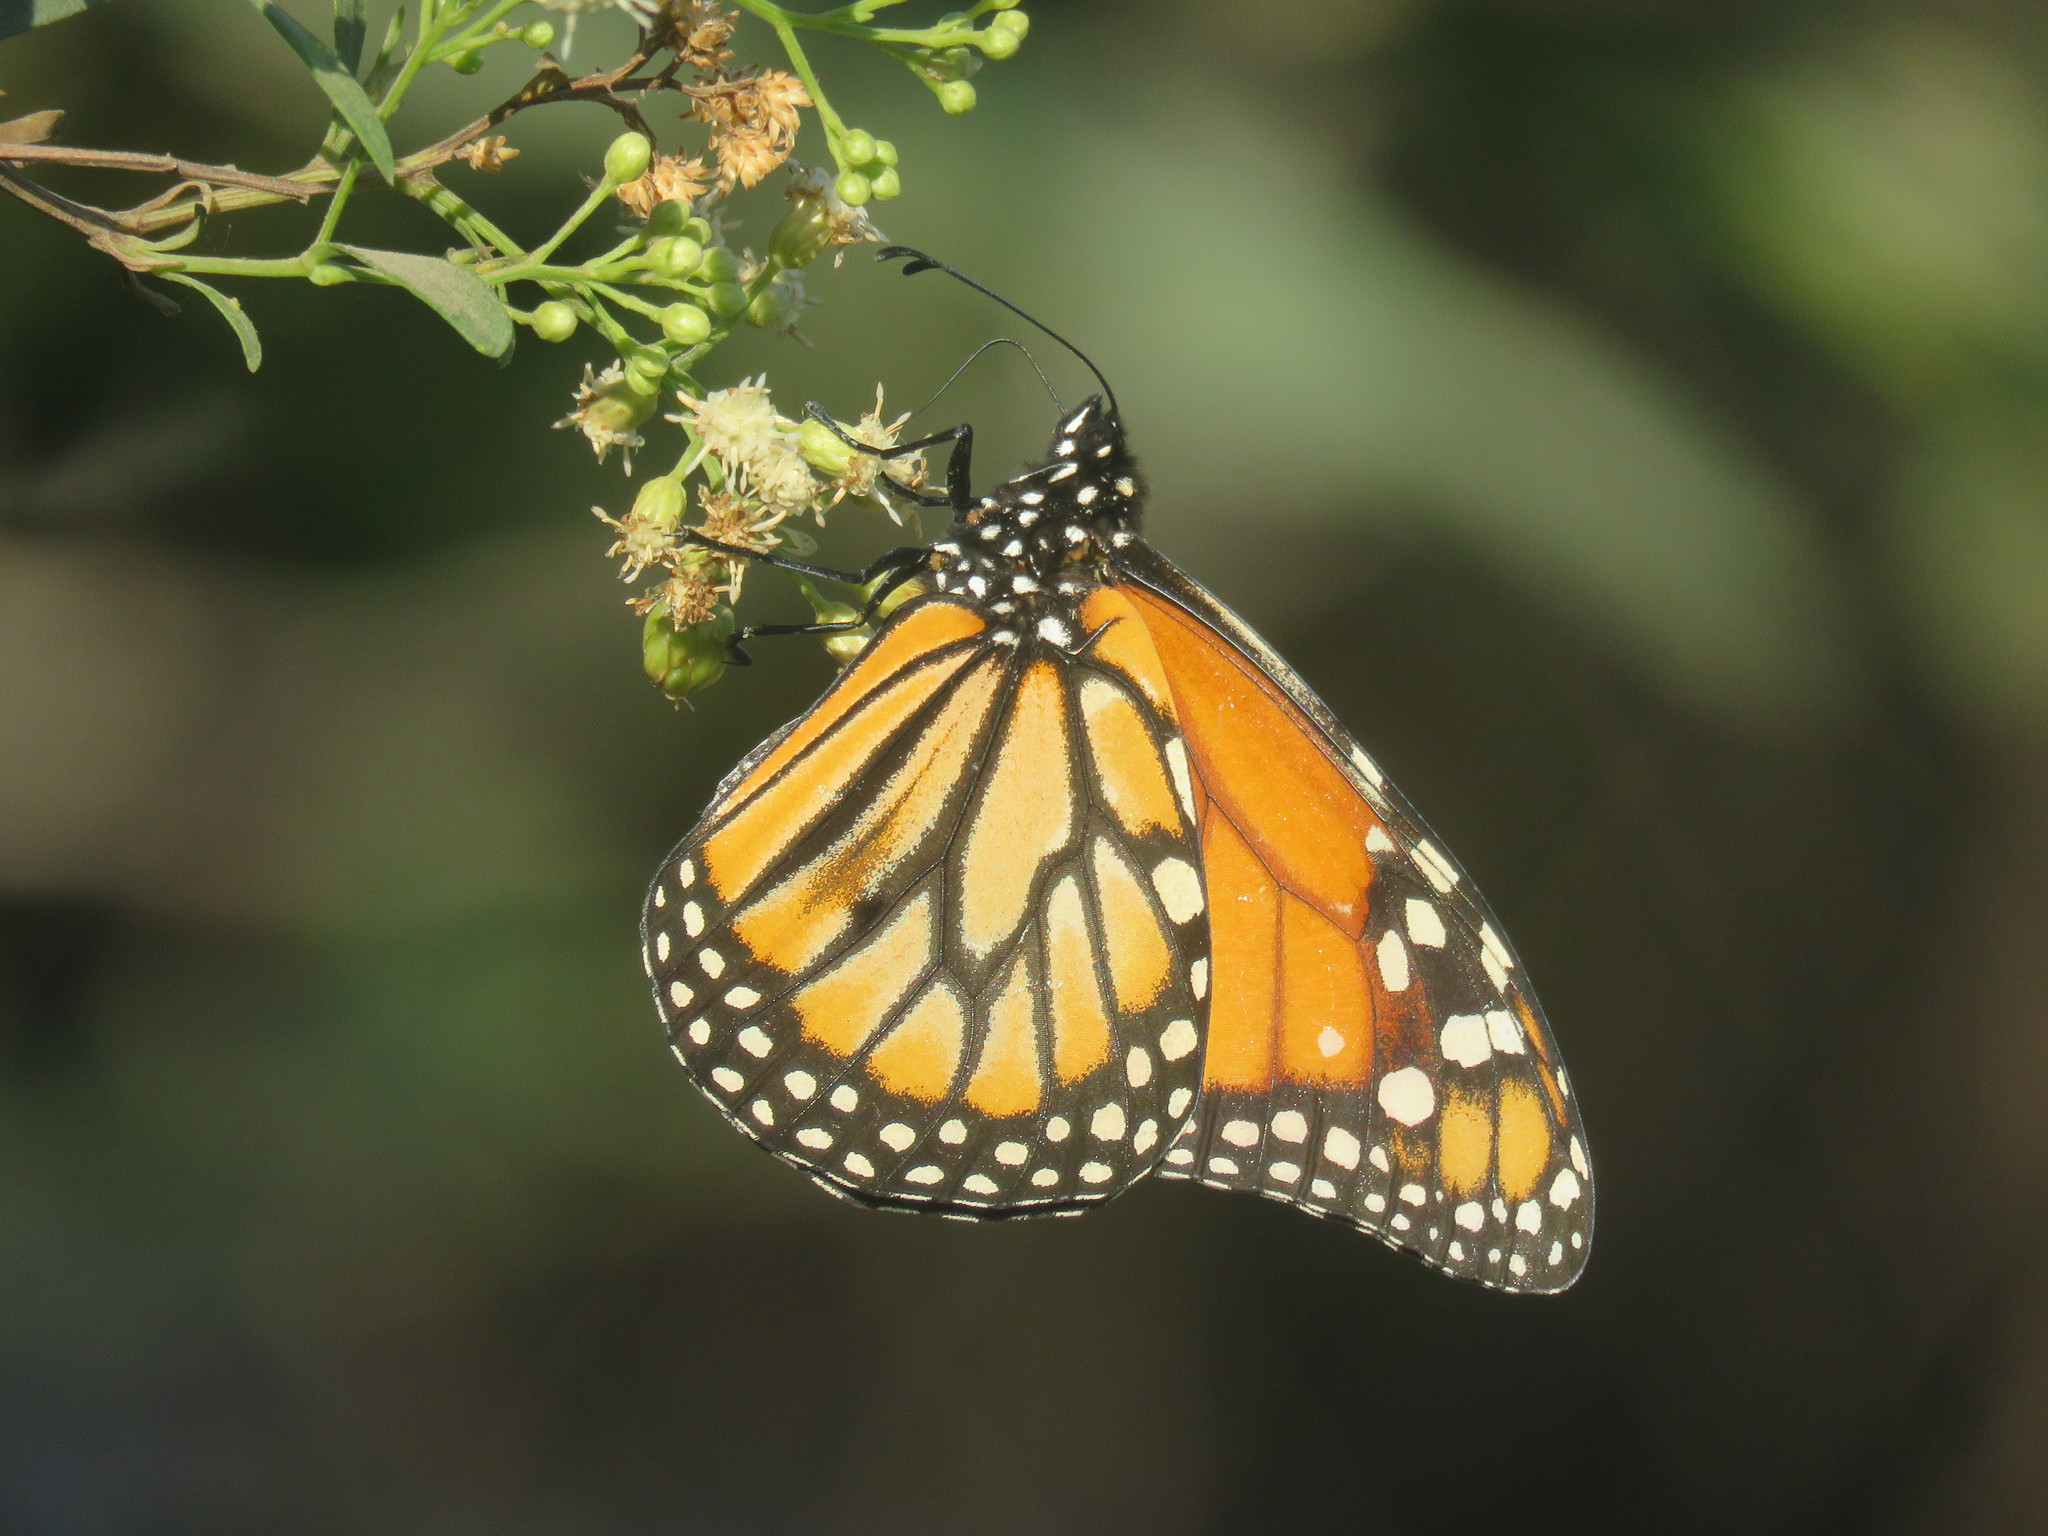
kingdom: Animalia
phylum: Arthropoda
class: Insecta
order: Lepidoptera
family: Nymphalidae
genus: Danaus
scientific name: Danaus erippus
